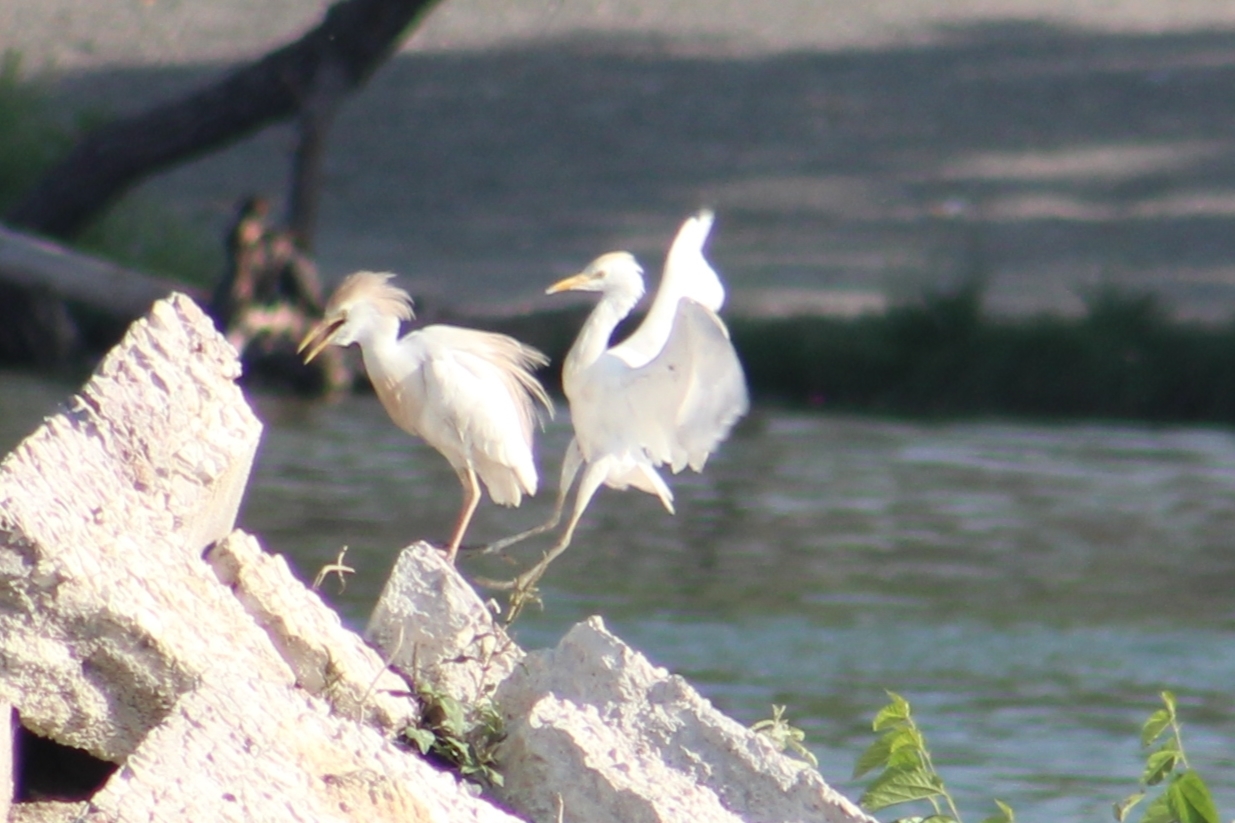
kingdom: Animalia
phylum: Chordata
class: Aves
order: Pelecaniformes
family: Ardeidae
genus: Bubulcus
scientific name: Bubulcus ibis
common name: Cattle egret
